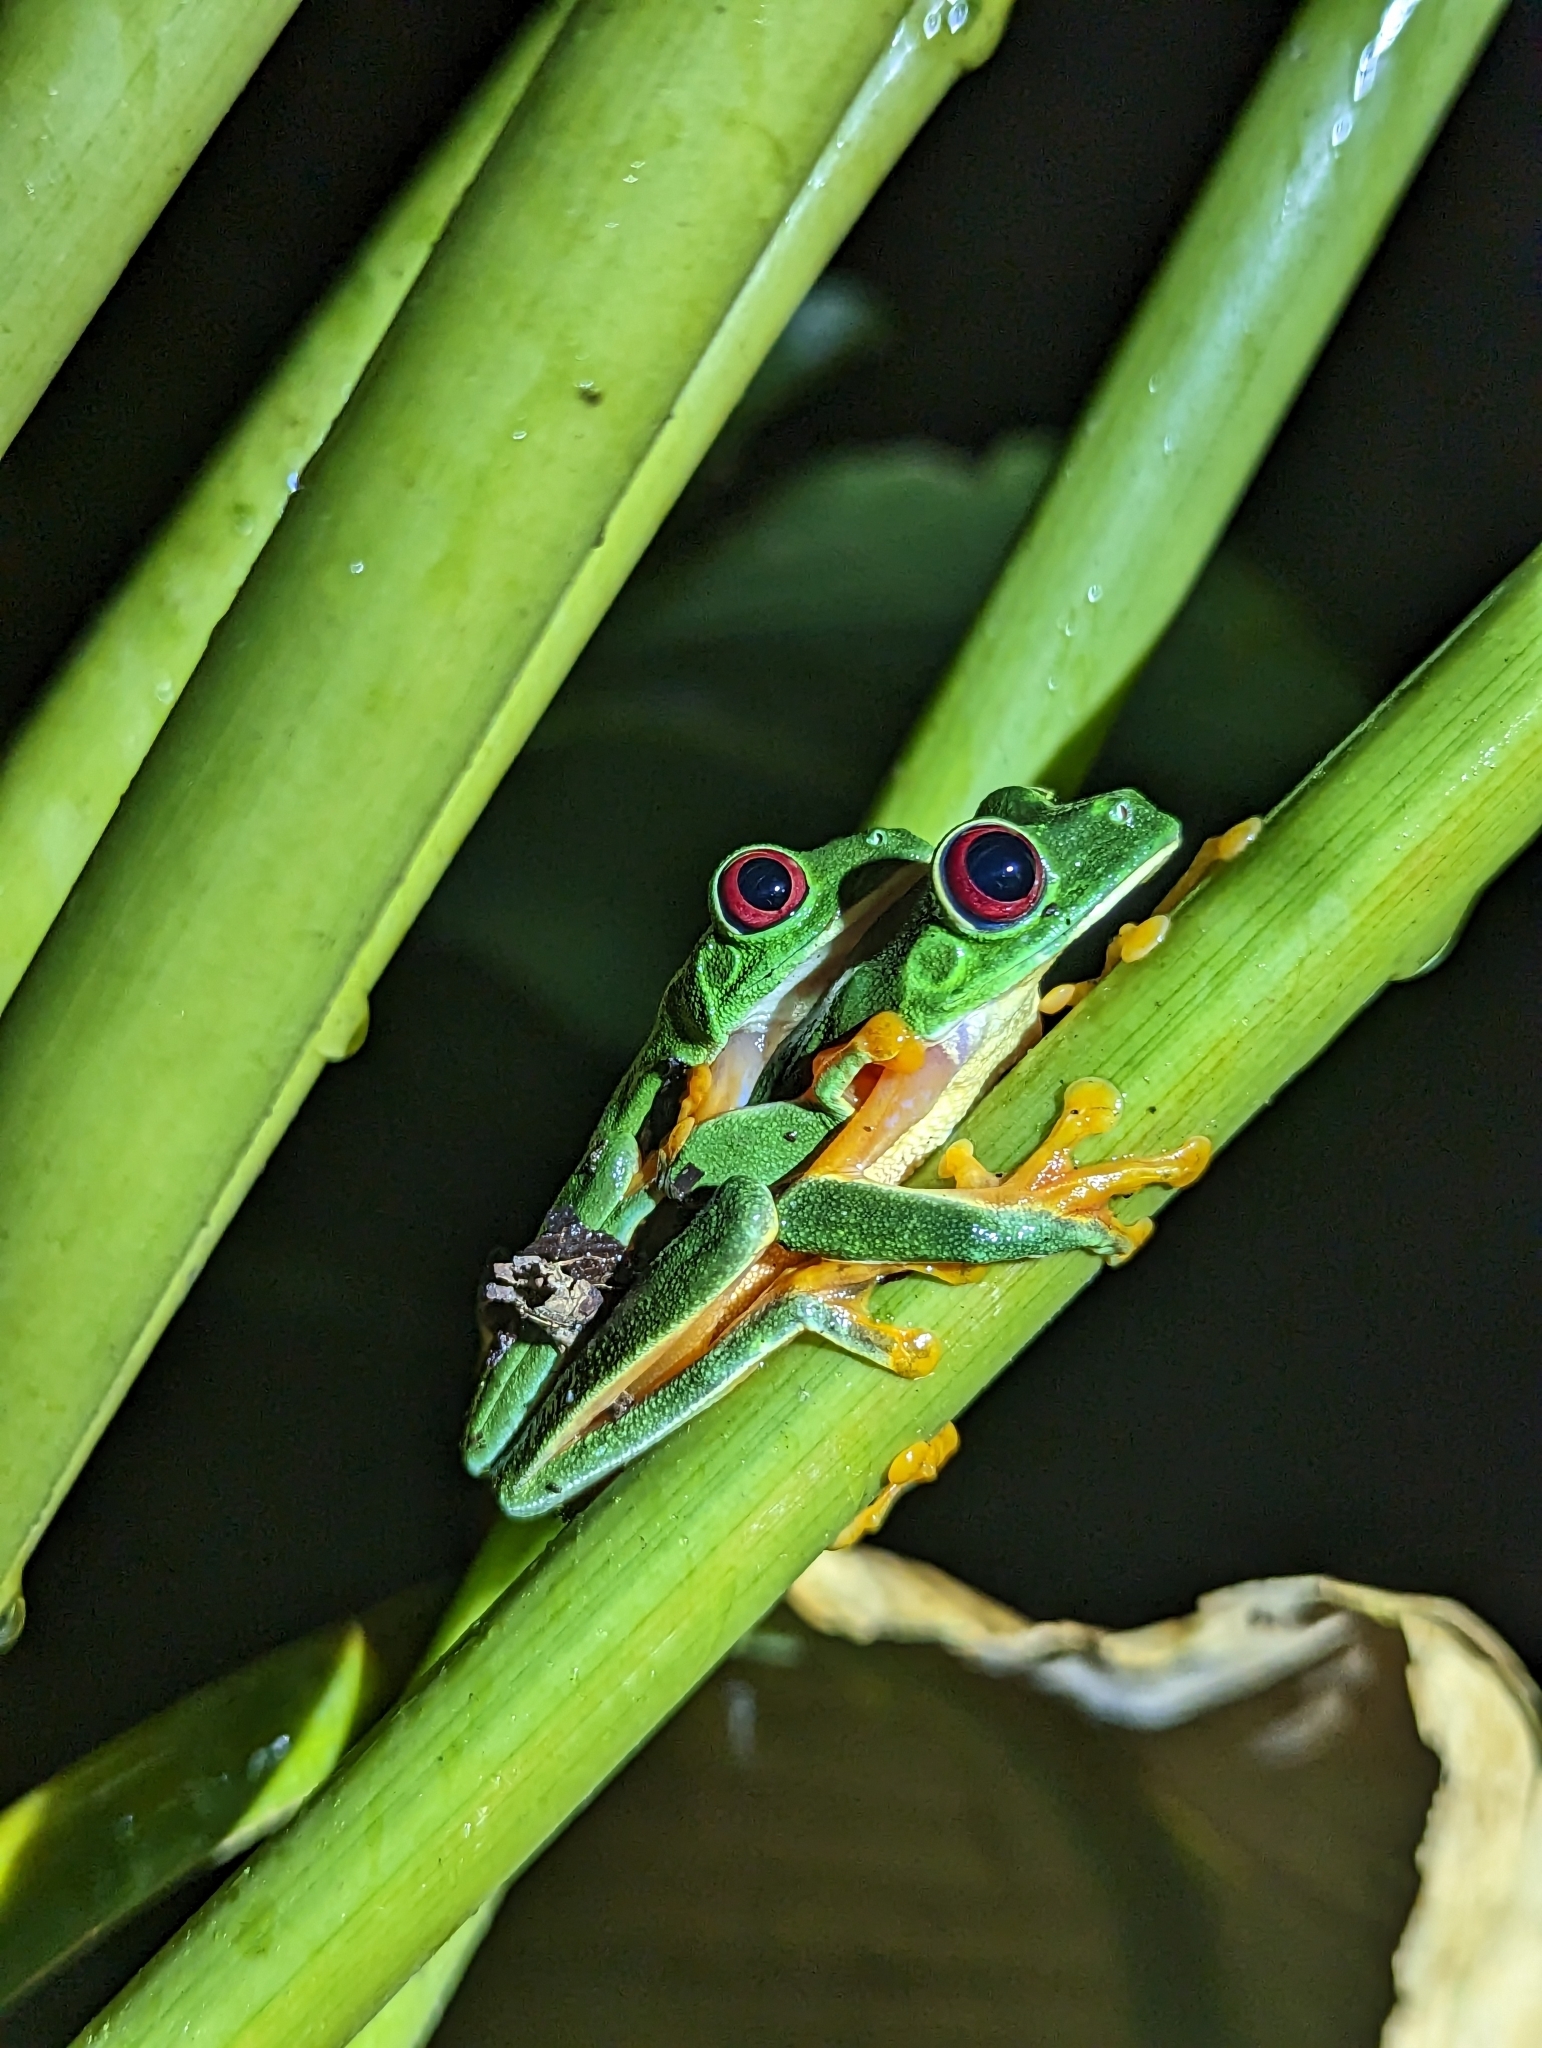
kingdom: Animalia
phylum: Chordata
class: Amphibia
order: Anura
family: Phyllomedusidae
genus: Agalychnis
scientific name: Agalychnis callidryas
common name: Red-eyed treefrog
